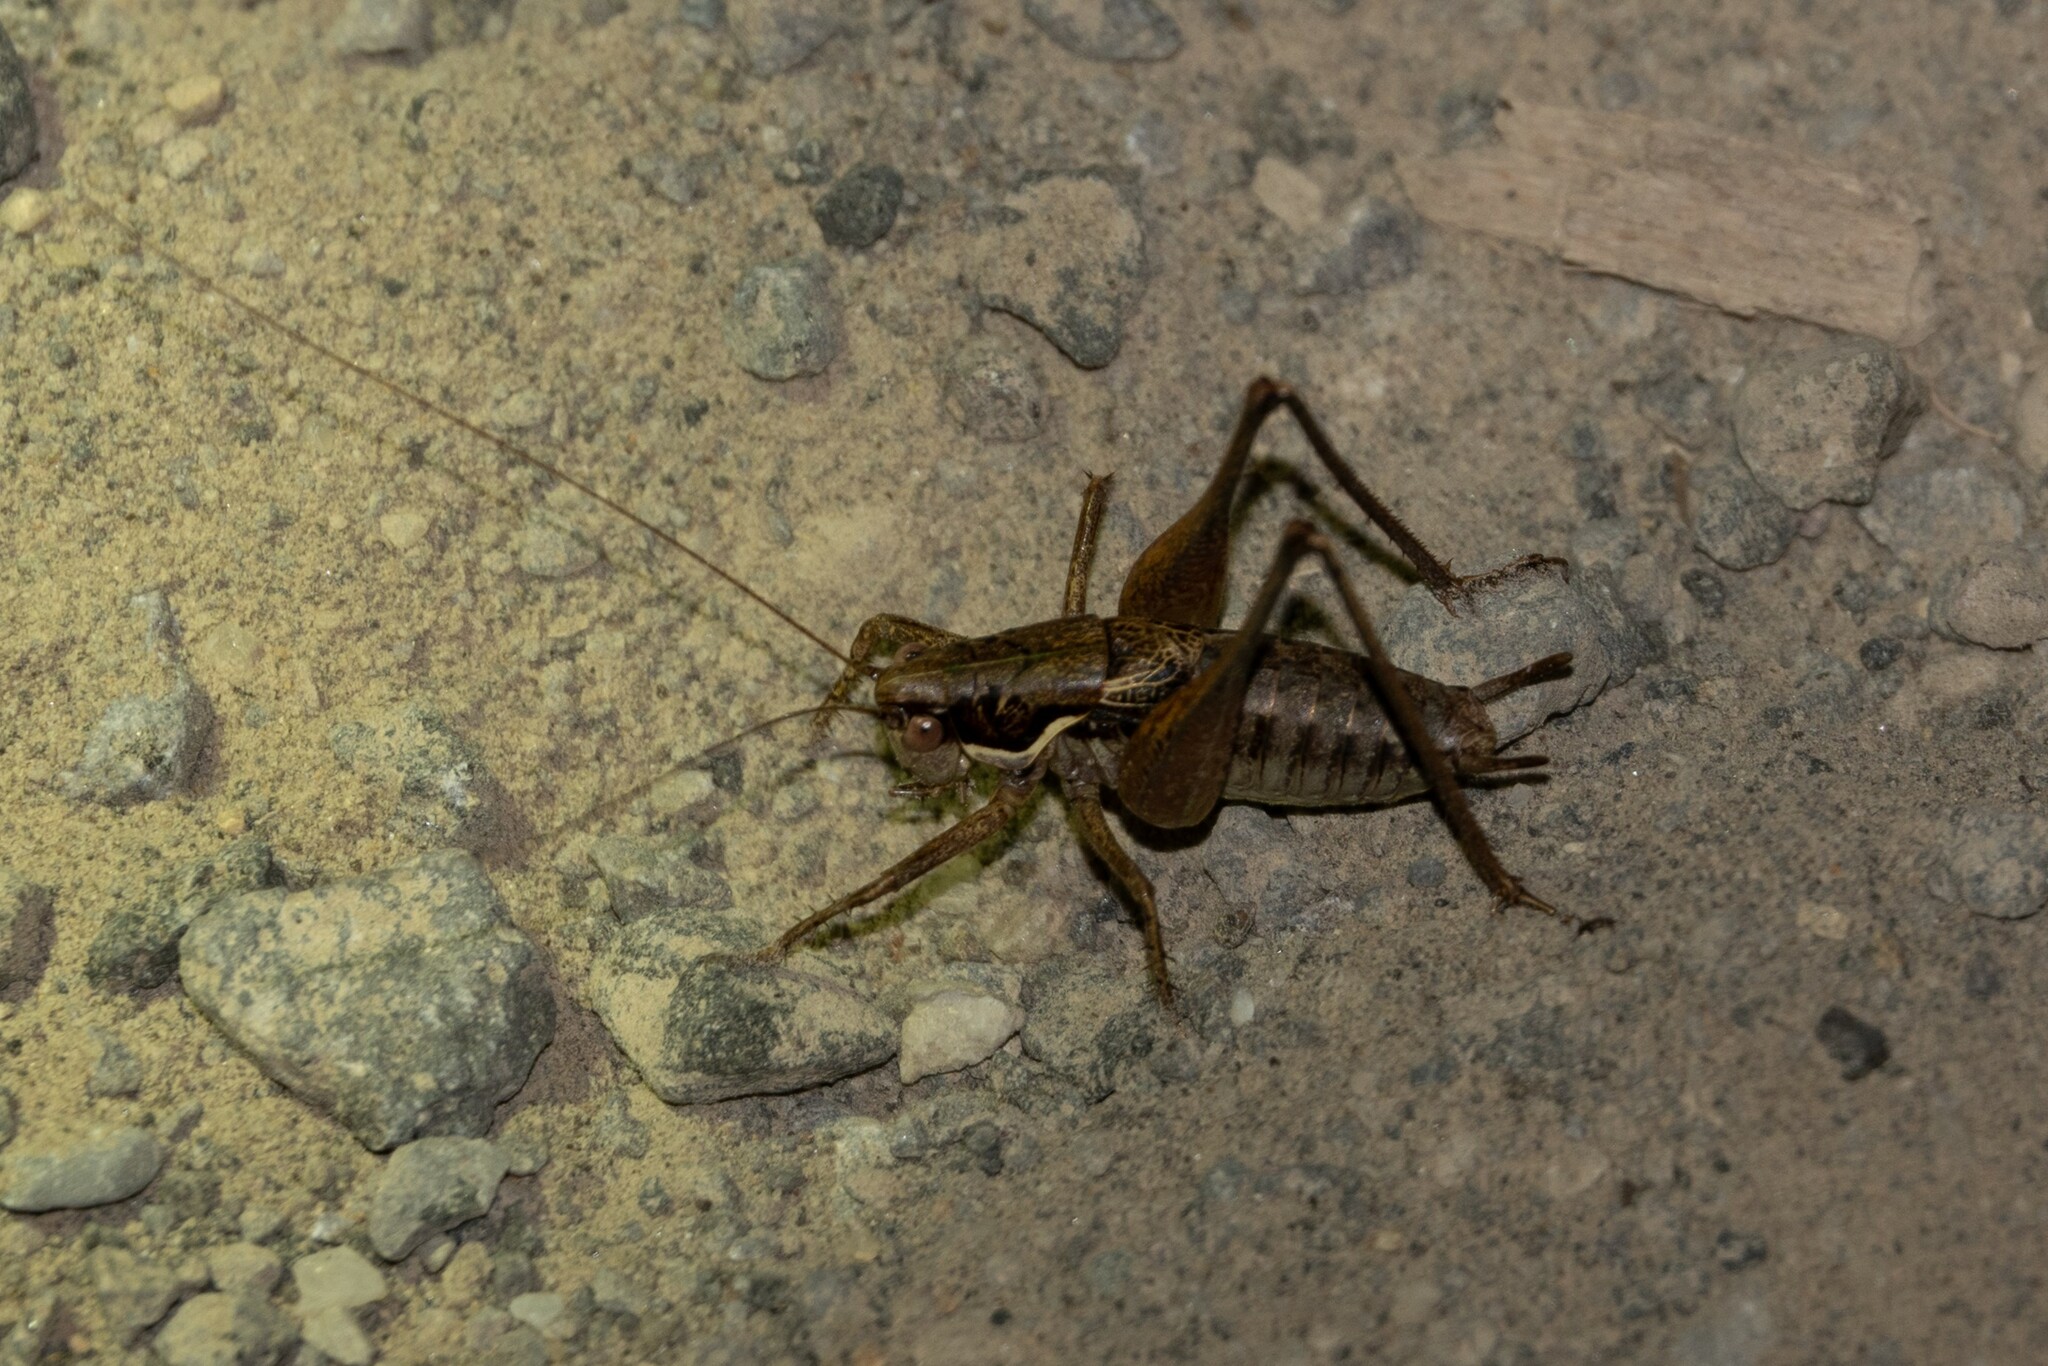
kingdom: Animalia
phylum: Arthropoda
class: Insecta
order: Orthoptera
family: Tettigoniidae
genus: Pachytrachis
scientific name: Pachytrachis gracilis
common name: Graceful bush-cricket
